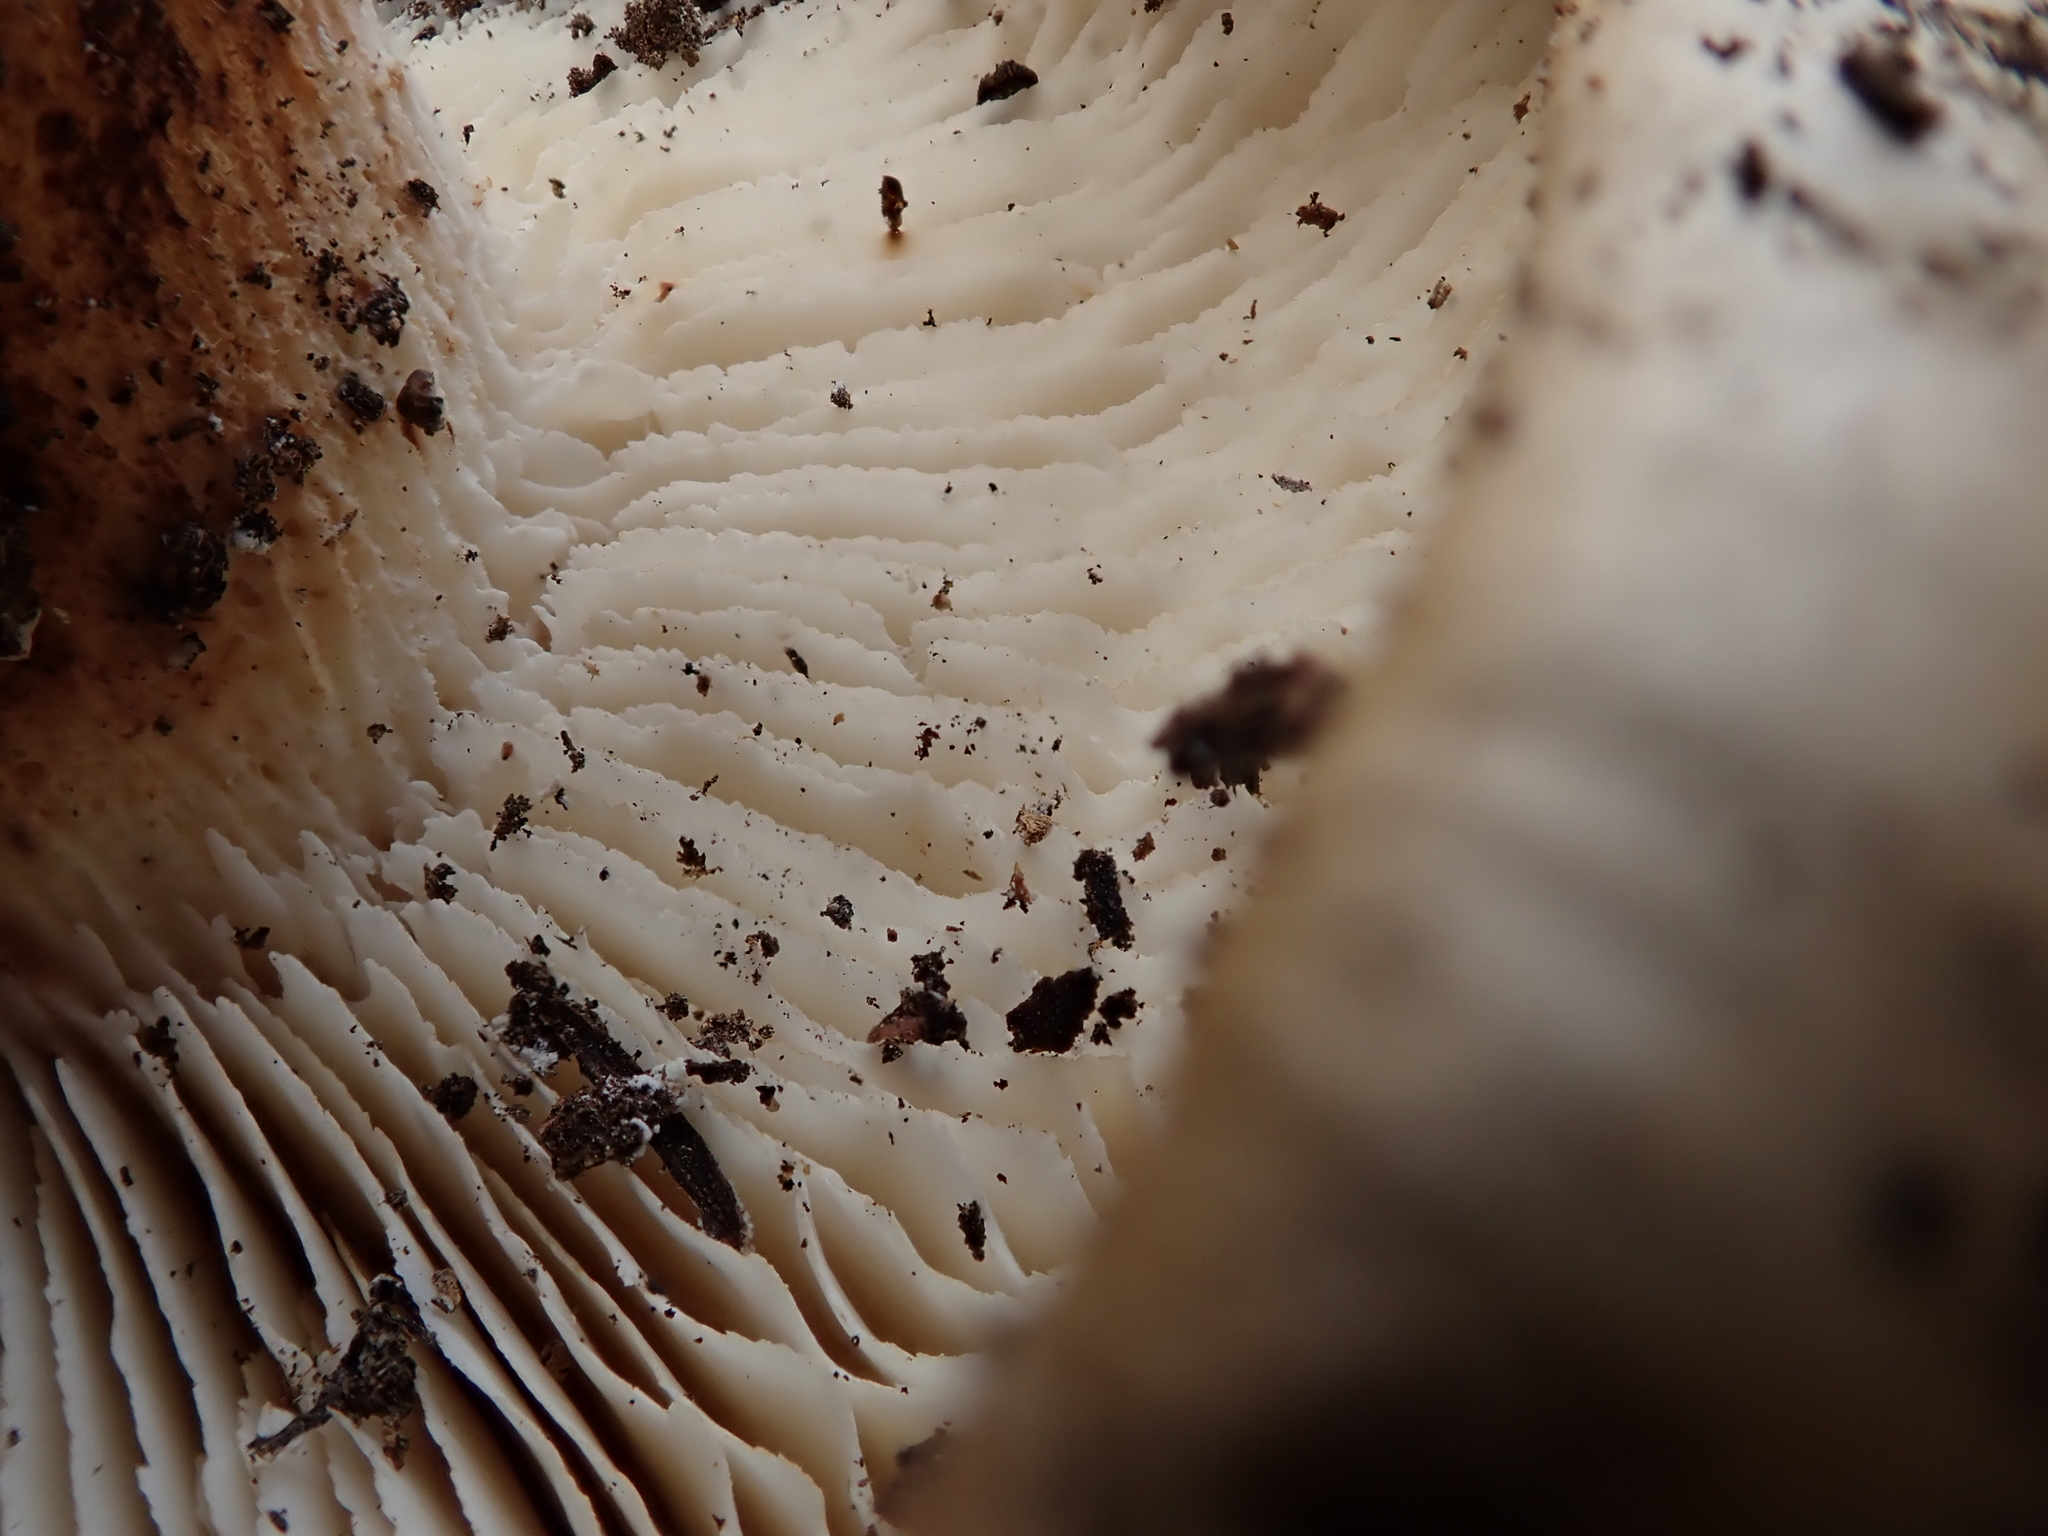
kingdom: Fungi
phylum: Basidiomycota
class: Agaricomycetes
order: Gloeophyllales
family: Gloeophyllaceae
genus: Neolentinus
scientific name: Neolentinus ponderosus
